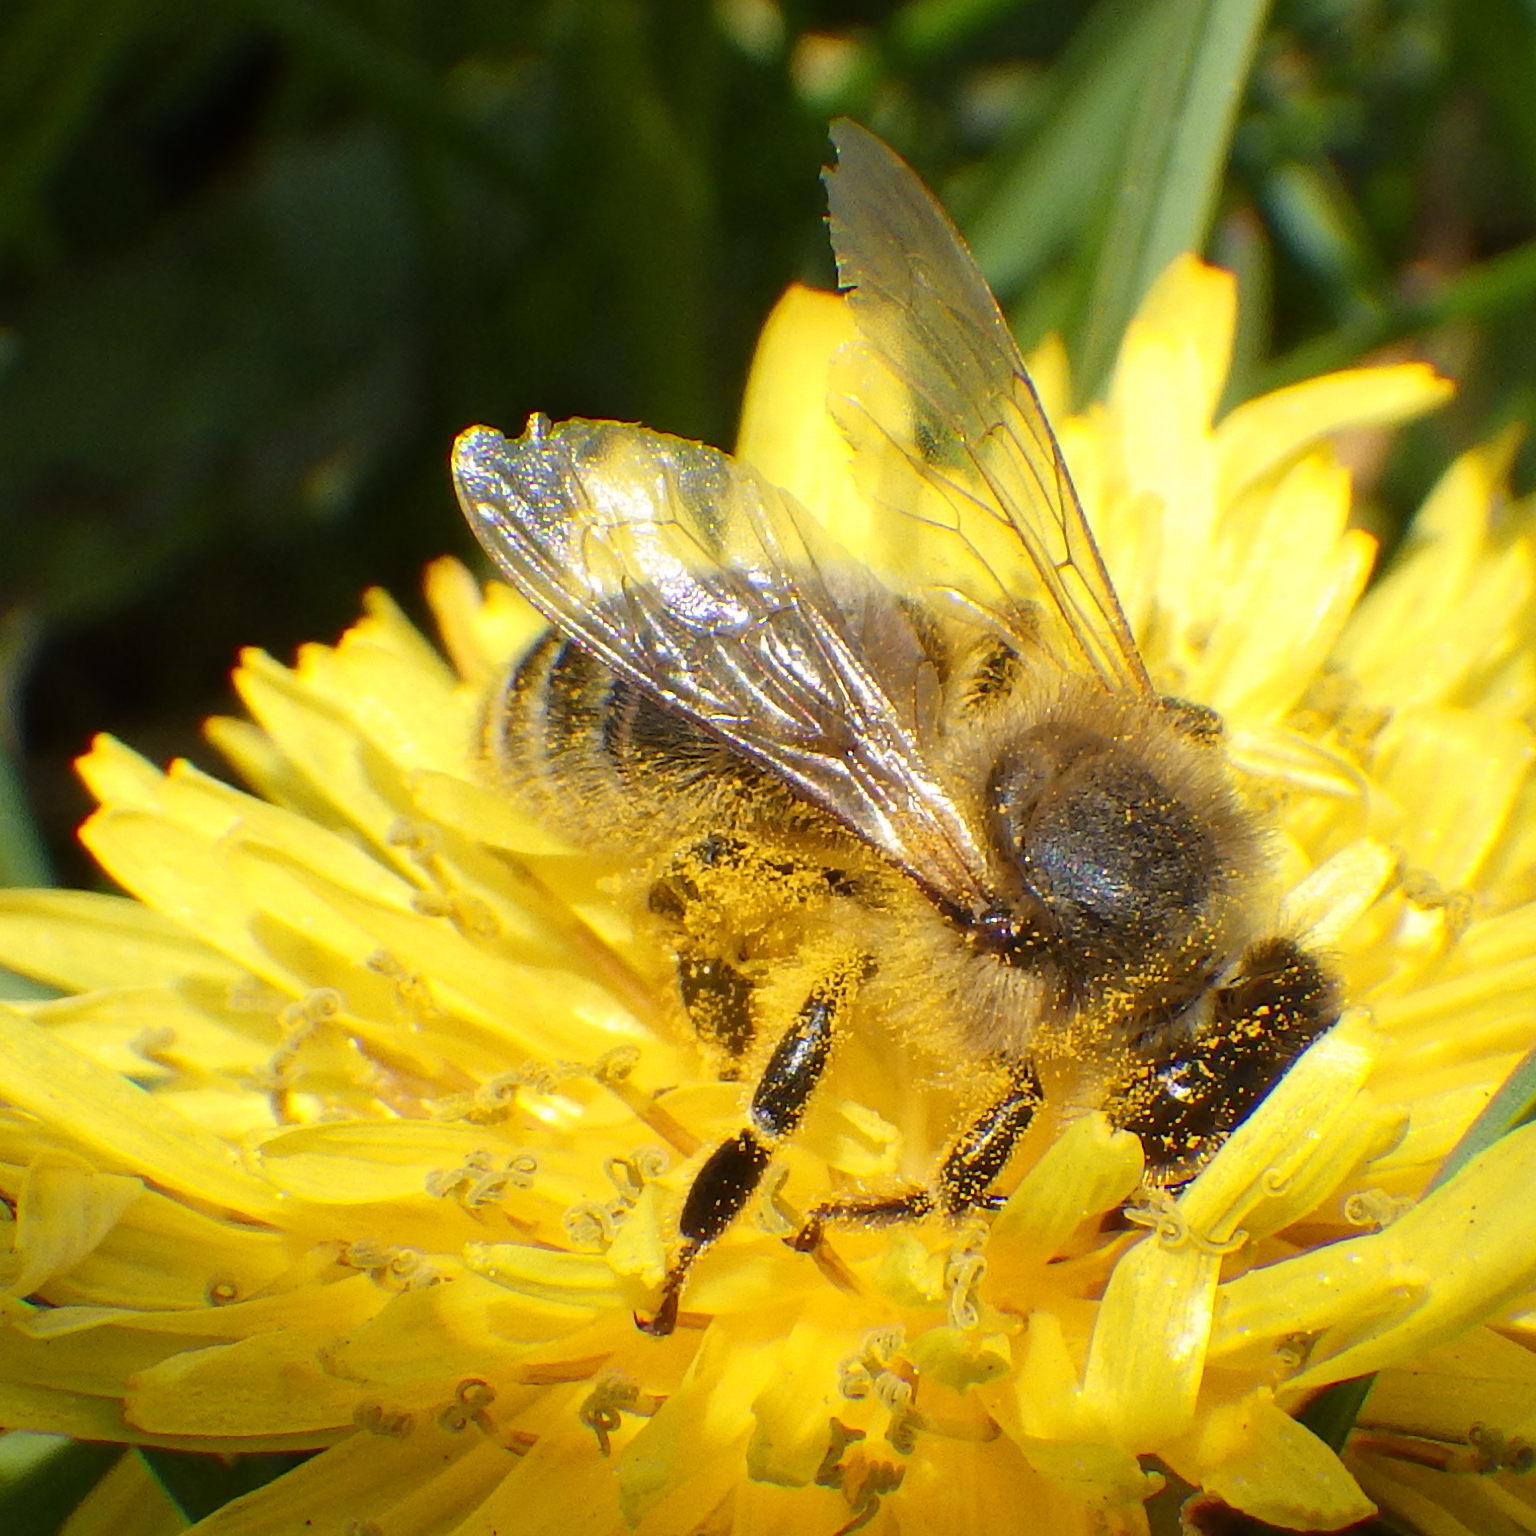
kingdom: Animalia
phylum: Arthropoda
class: Insecta
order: Hymenoptera
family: Apidae
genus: Apis
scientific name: Apis mellifera
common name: Honey bee
